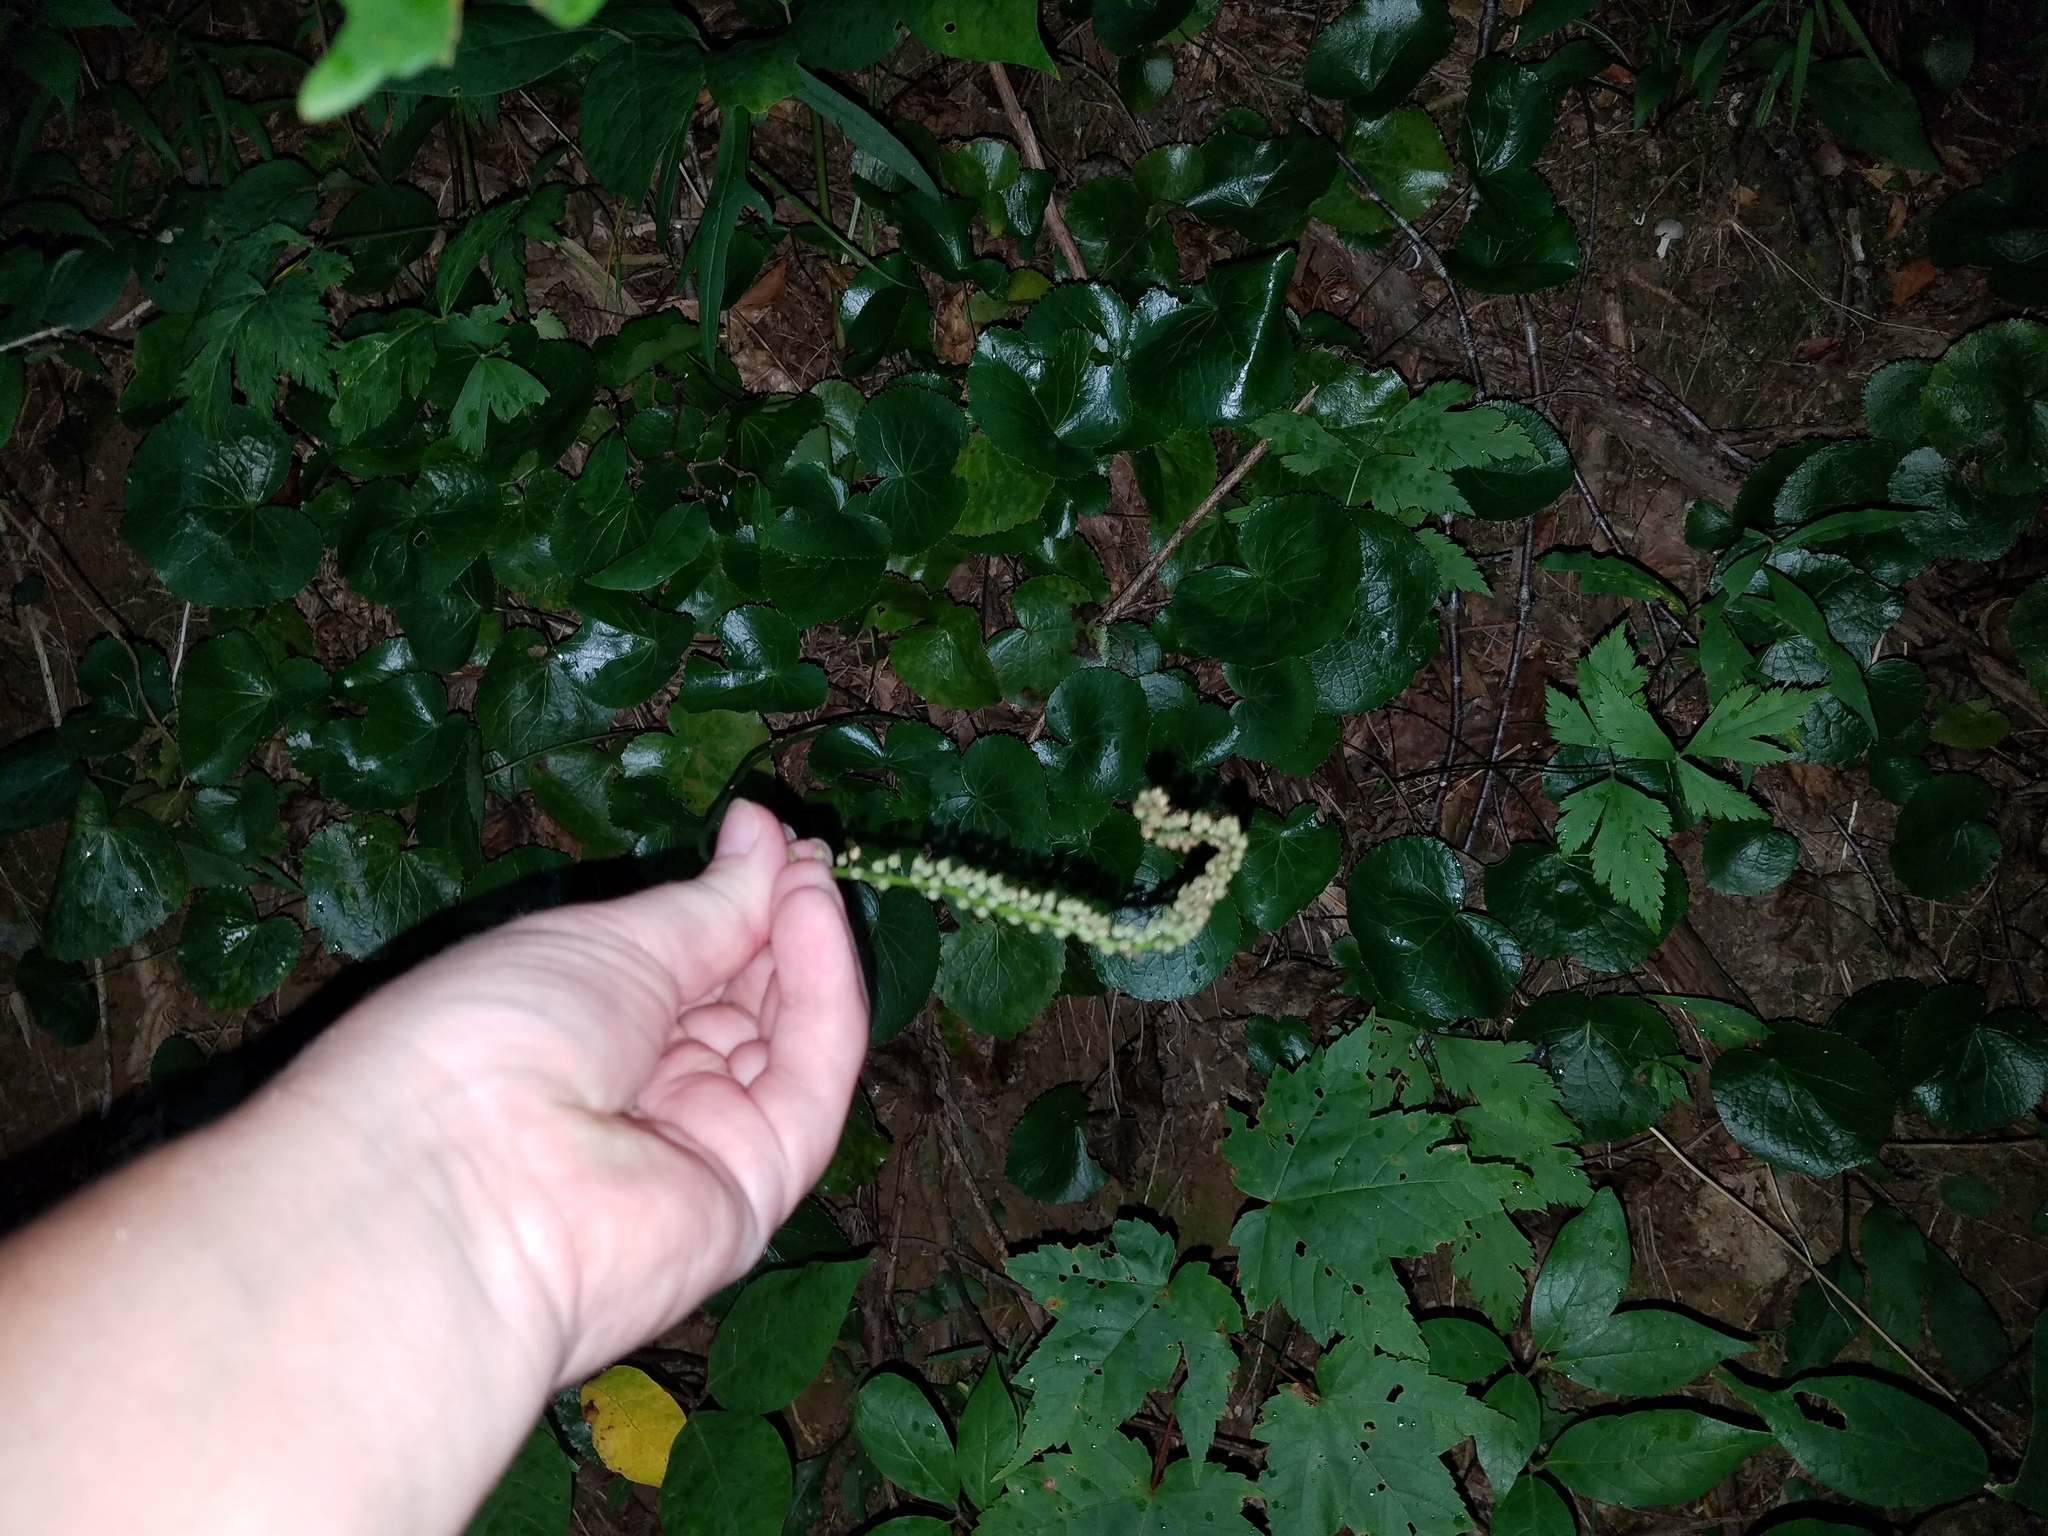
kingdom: Plantae
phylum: Tracheophyta
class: Magnoliopsida
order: Ericales
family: Diapensiaceae
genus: Galax
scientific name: Galax urceolata
